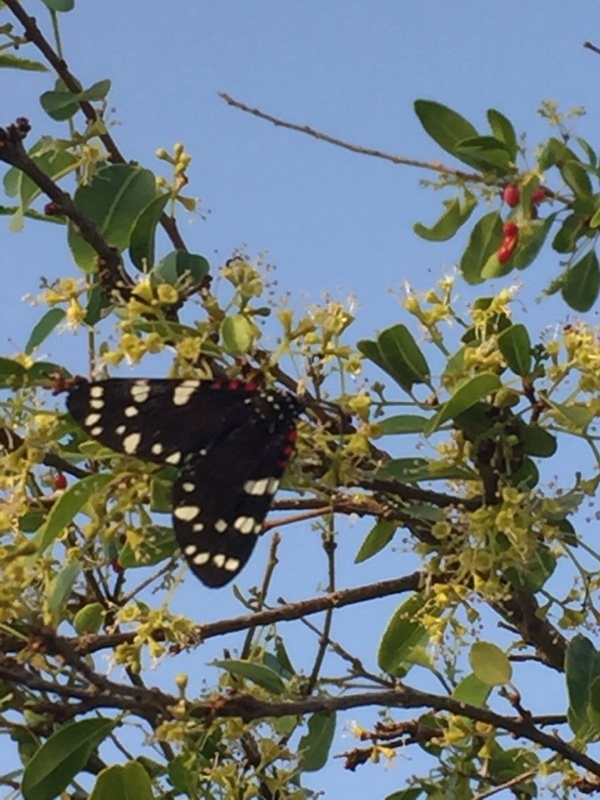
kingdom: Animalia
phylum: Arthropoda
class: Insecta
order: Lepidoptera
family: Erebidae
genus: Composia
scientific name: Composia fidelissima
